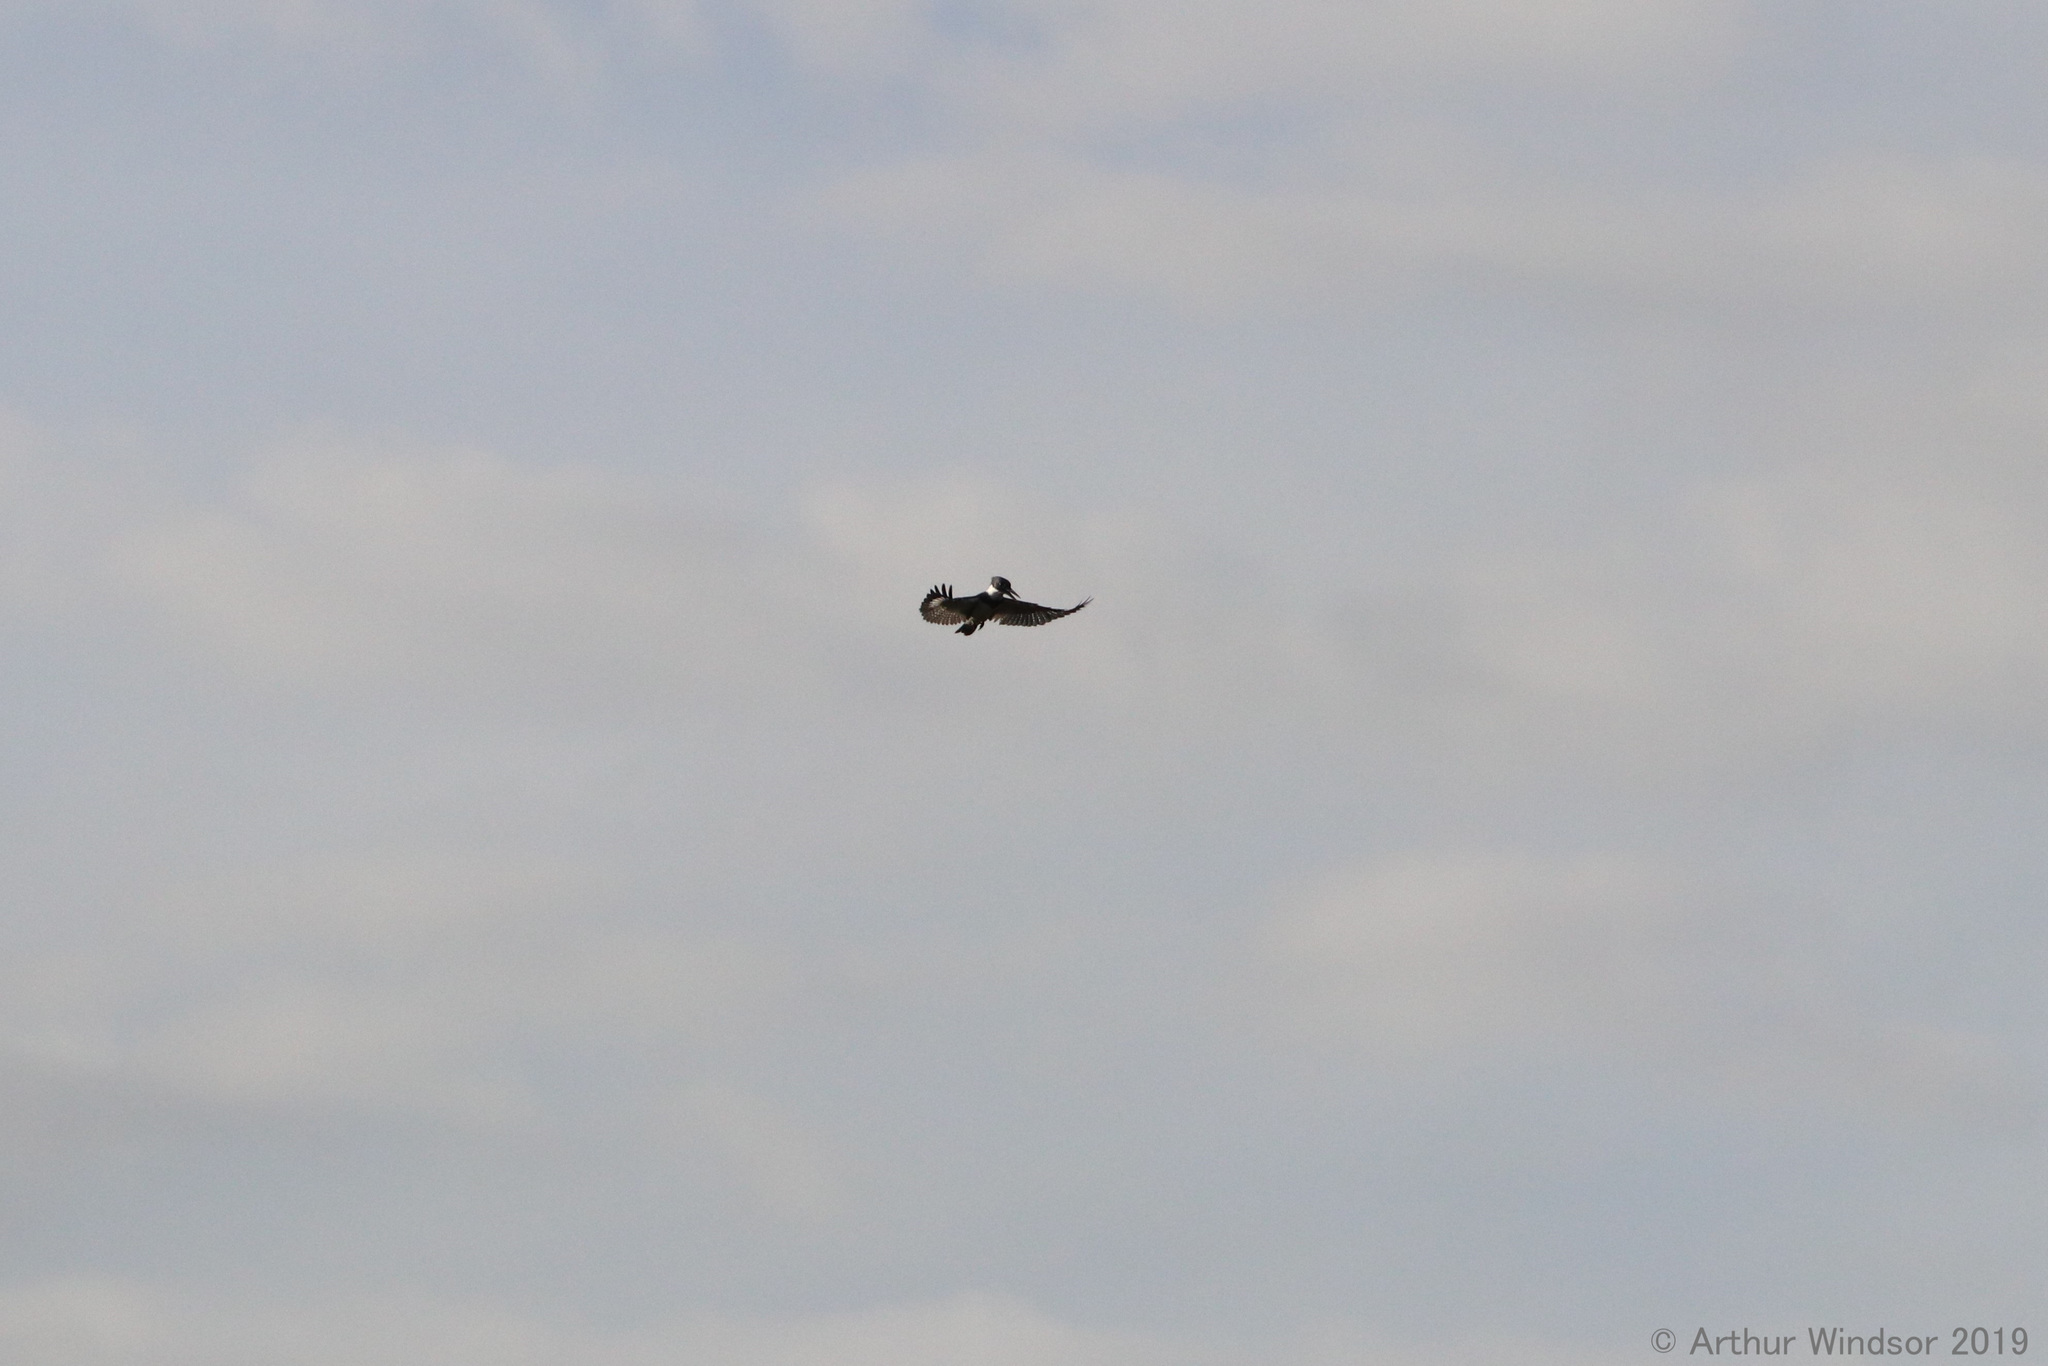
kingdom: Animalia
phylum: Chordata
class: Aves
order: Coraciiformes
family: Alcedinidae
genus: Megaceryle
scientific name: Megaceryle alcyon
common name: Belted kingfisher
